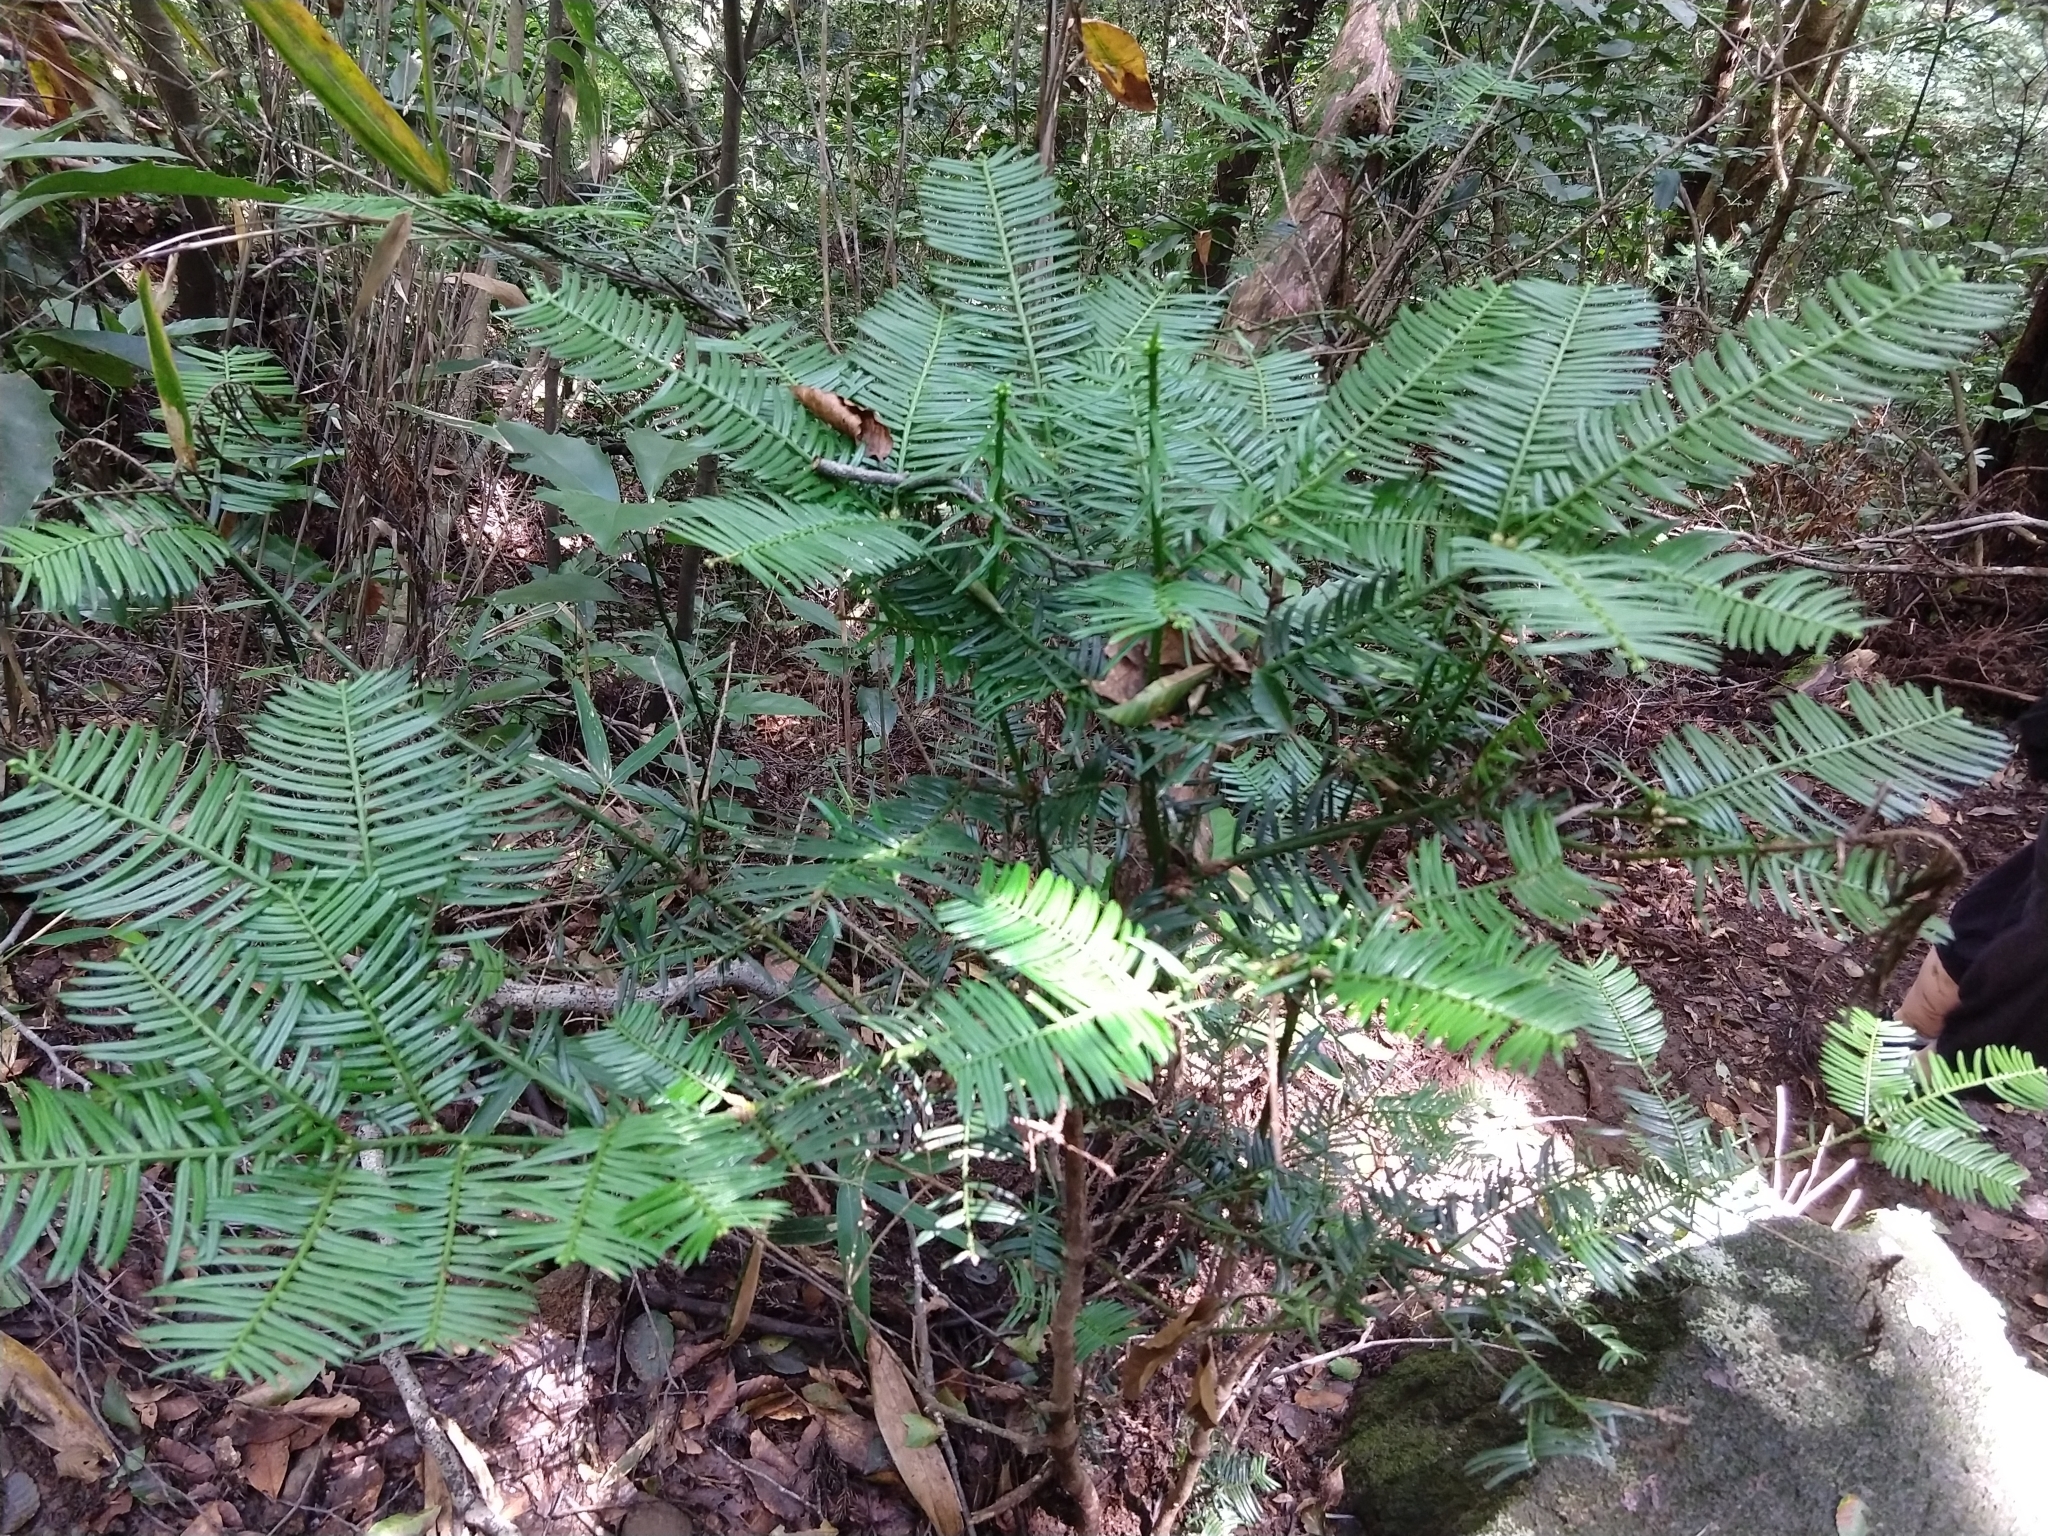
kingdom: Plantae
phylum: Tracheophyta
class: Pinopsida
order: Pinales
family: Cephalotaxaceae
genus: Cephalotaxus
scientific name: Cephalotaxus harringtonia
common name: Japanese plum-yew
